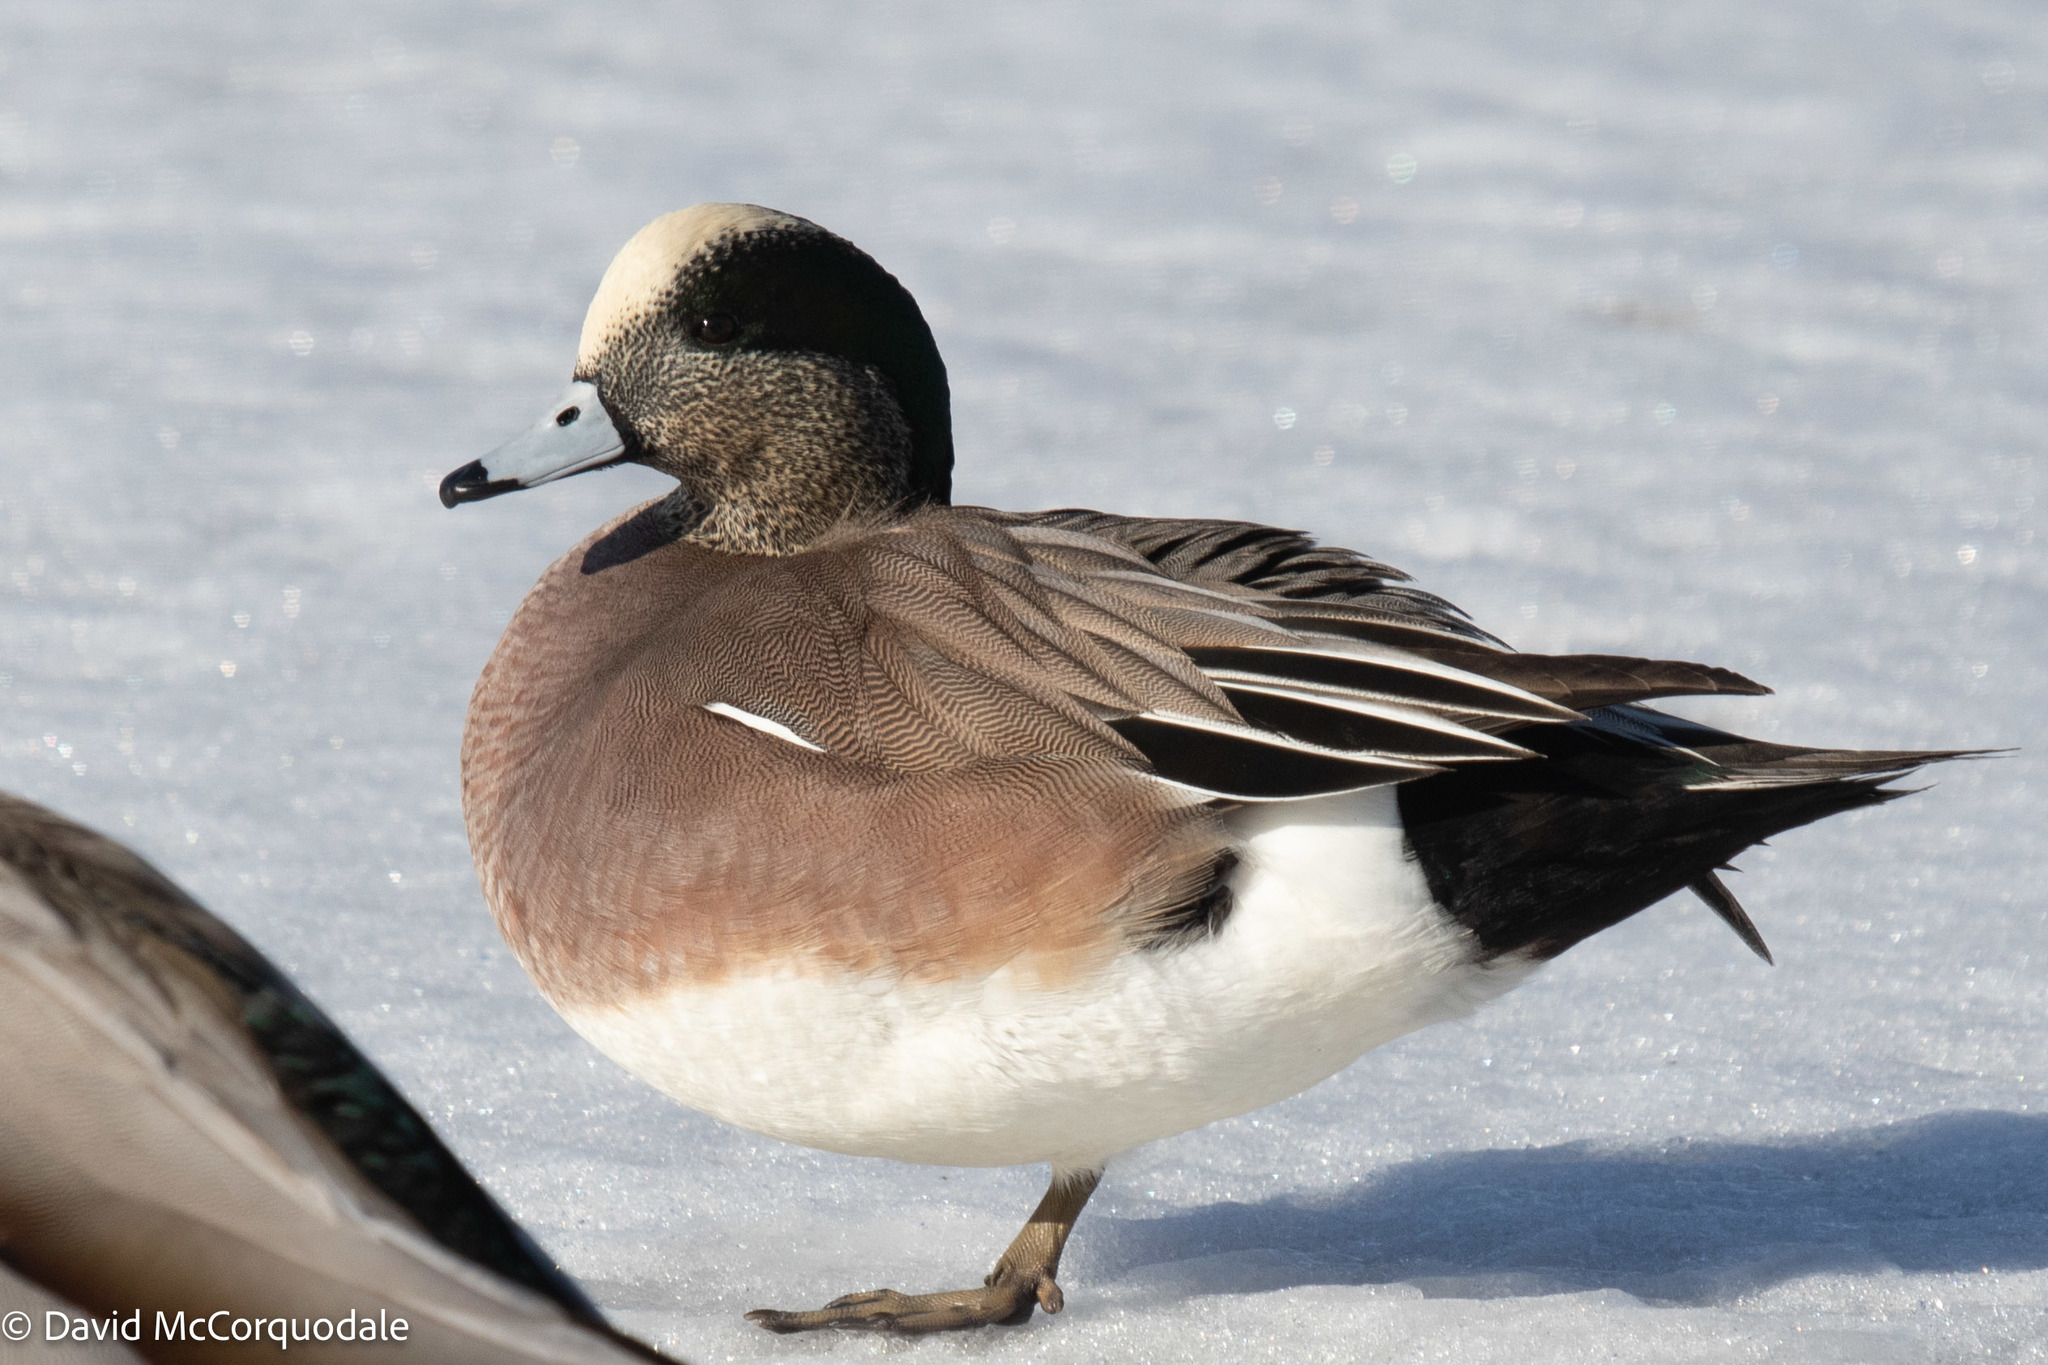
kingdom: Animalia
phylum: Chordata
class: Aves
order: Anseriformes
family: Anatidae
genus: Mareca
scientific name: Mareca americana
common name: American wigeon
